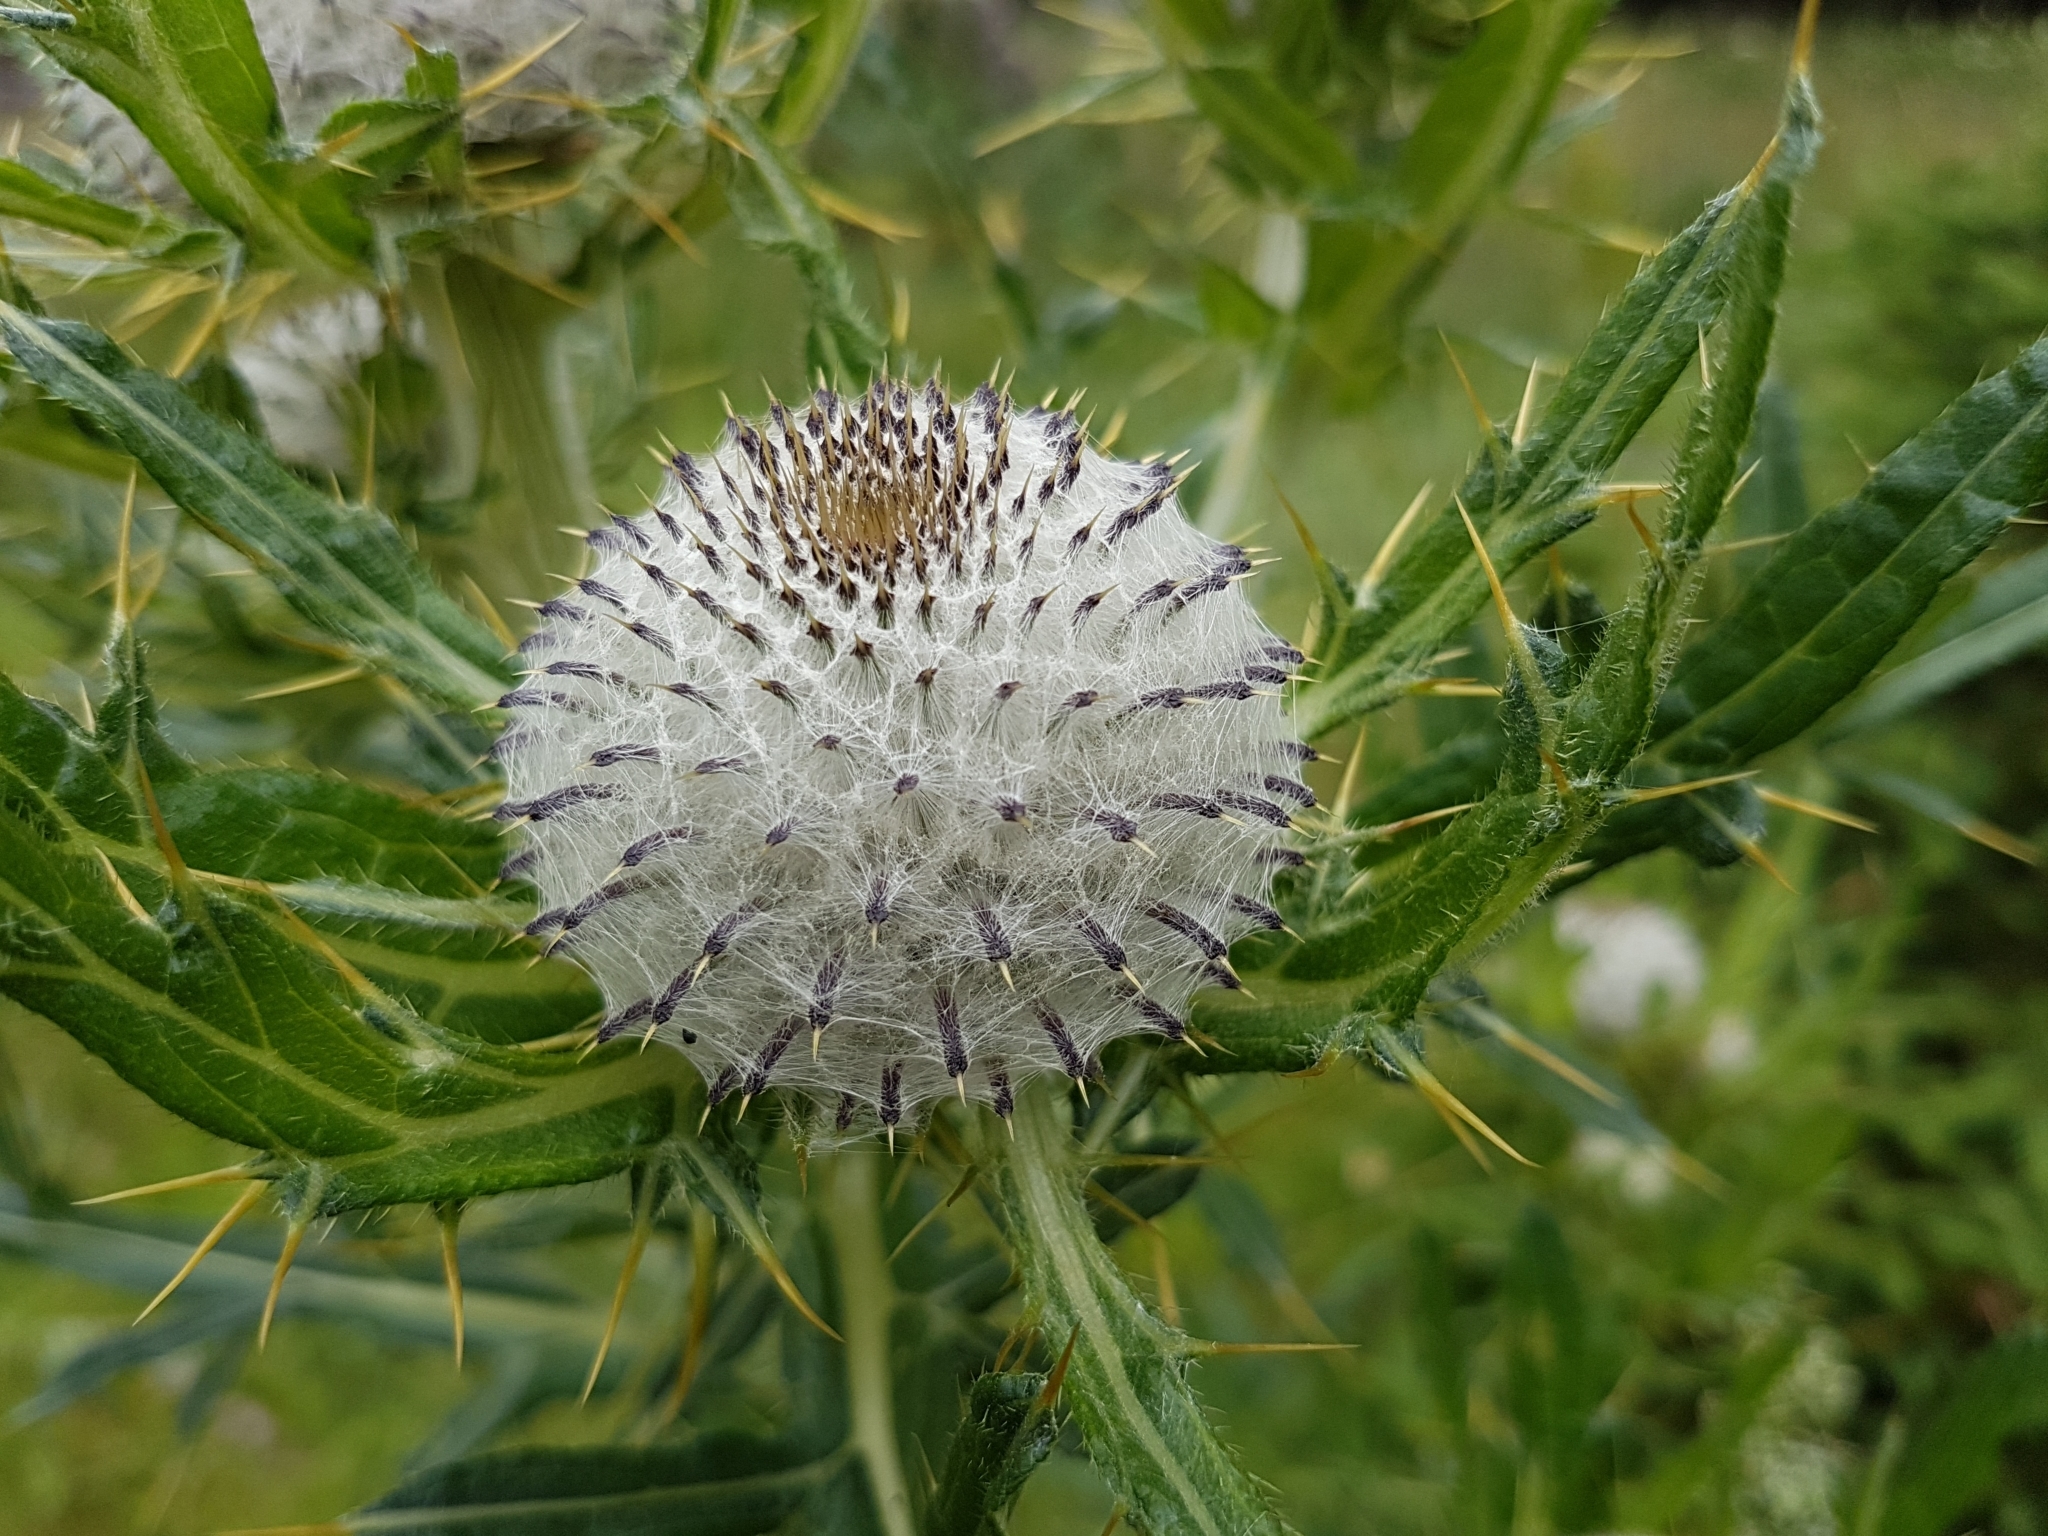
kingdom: Plantae
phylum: Tracheophyta
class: Magnoliopsida
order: Asterales
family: Asteraceae
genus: Lophiolepis
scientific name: Lophiolepis eriophora
